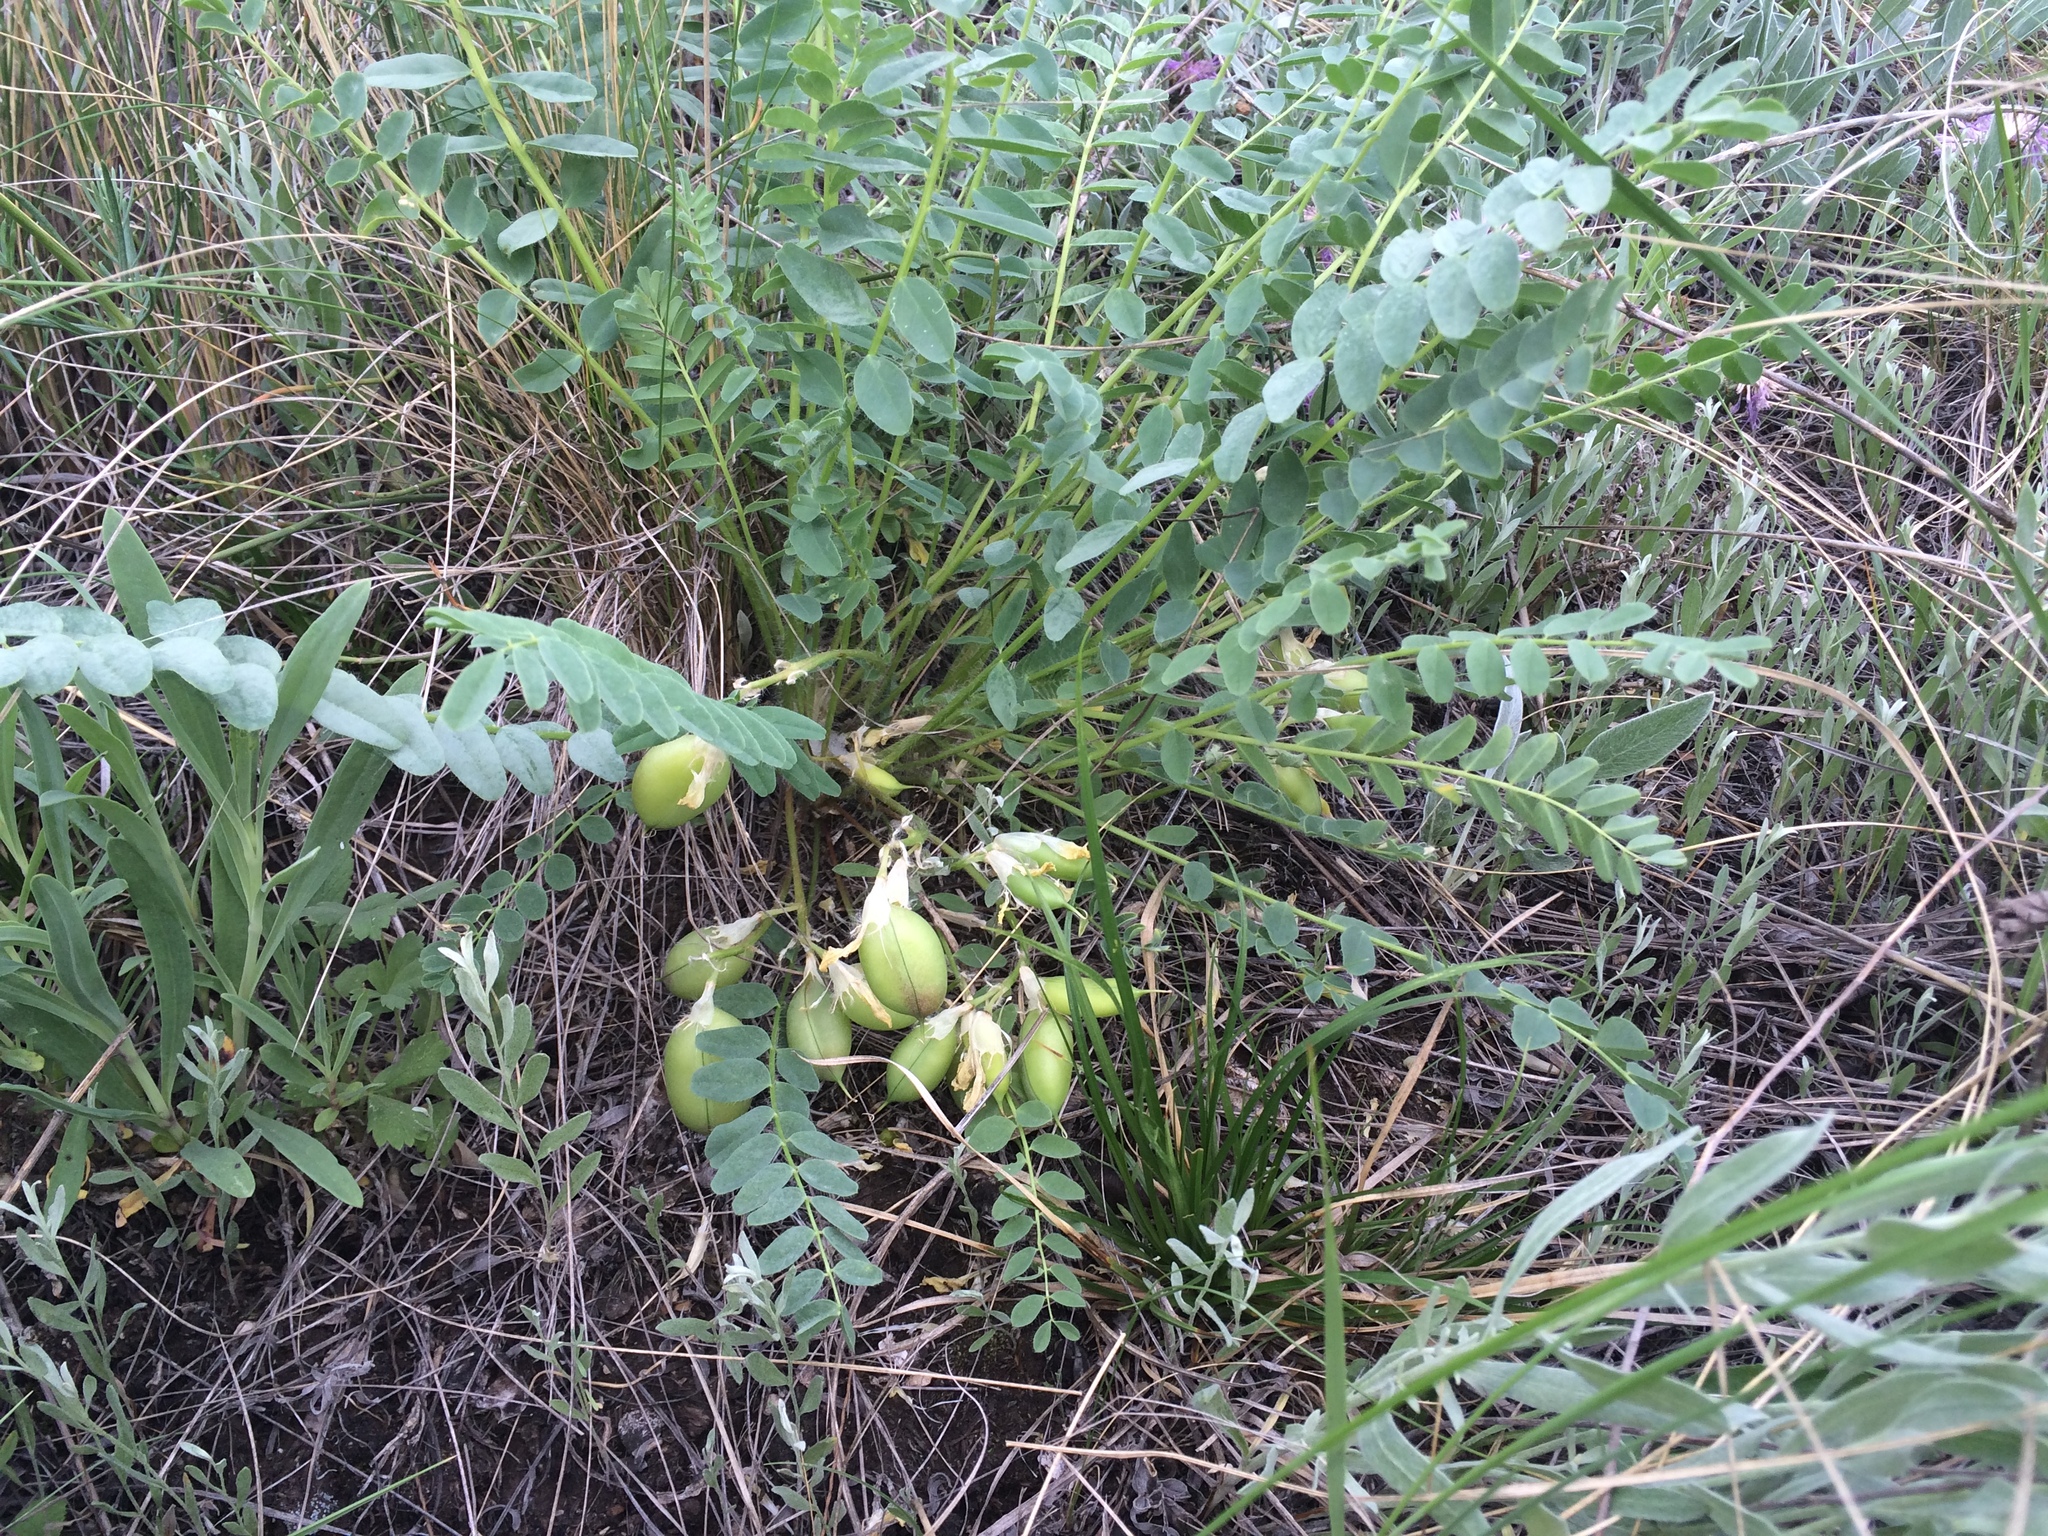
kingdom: Plantae
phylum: Tracheophyta
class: Magnoliopsida
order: Fabales
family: Fabaceae
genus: Astragalus
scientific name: Astragalus wolgensis
